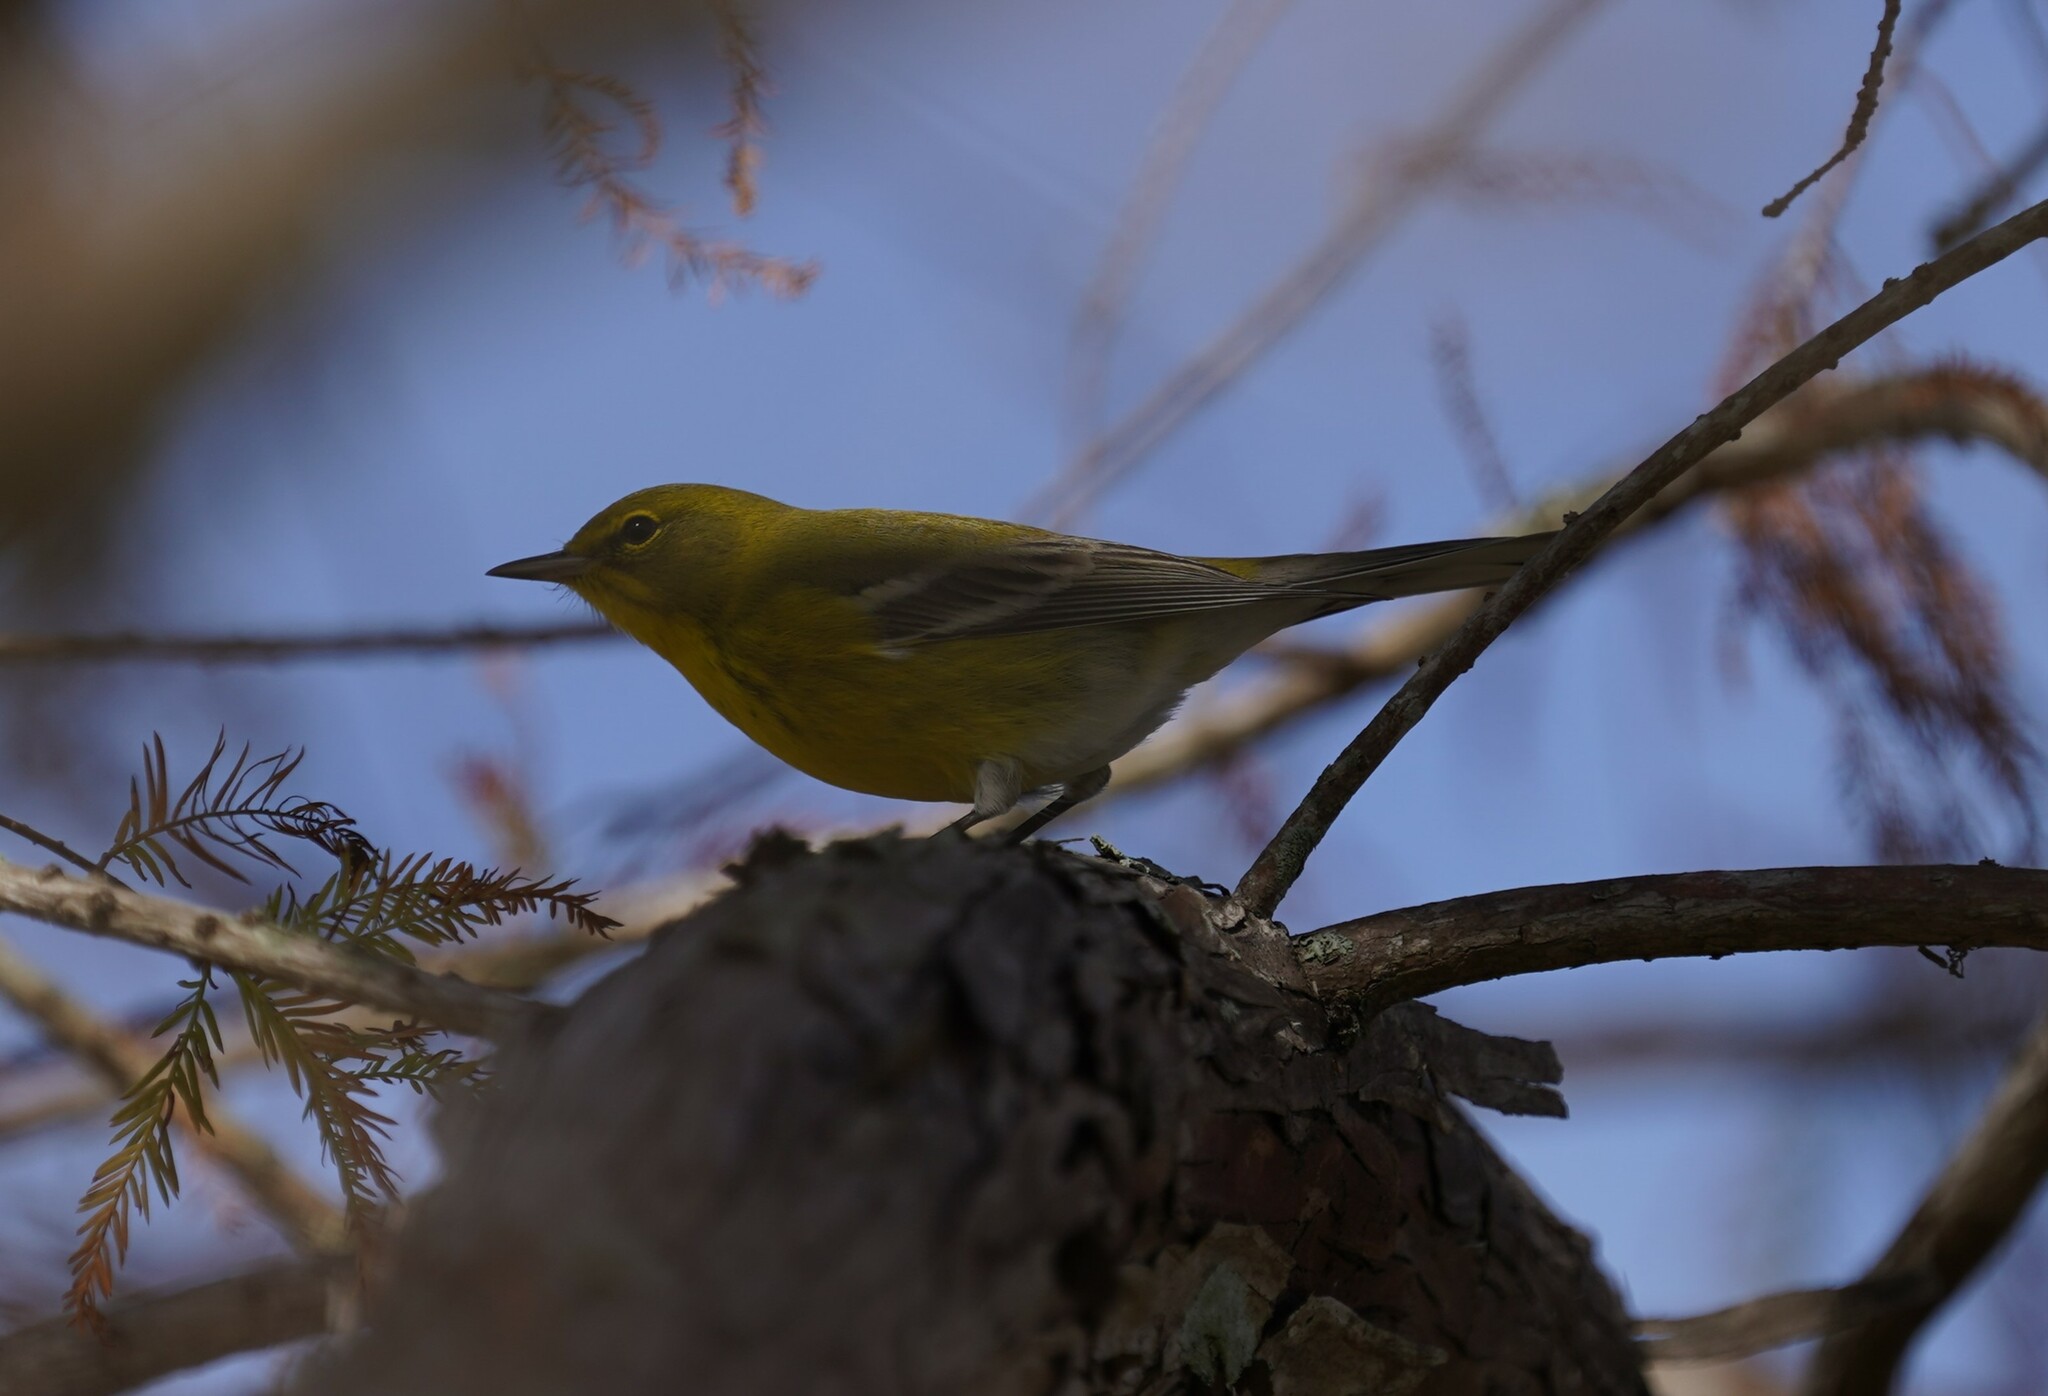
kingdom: Animalia
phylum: Chordata
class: Aves
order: Passeriformes
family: Parulidae
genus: Setophaga
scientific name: Setophaga pinus
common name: Pine warbler
